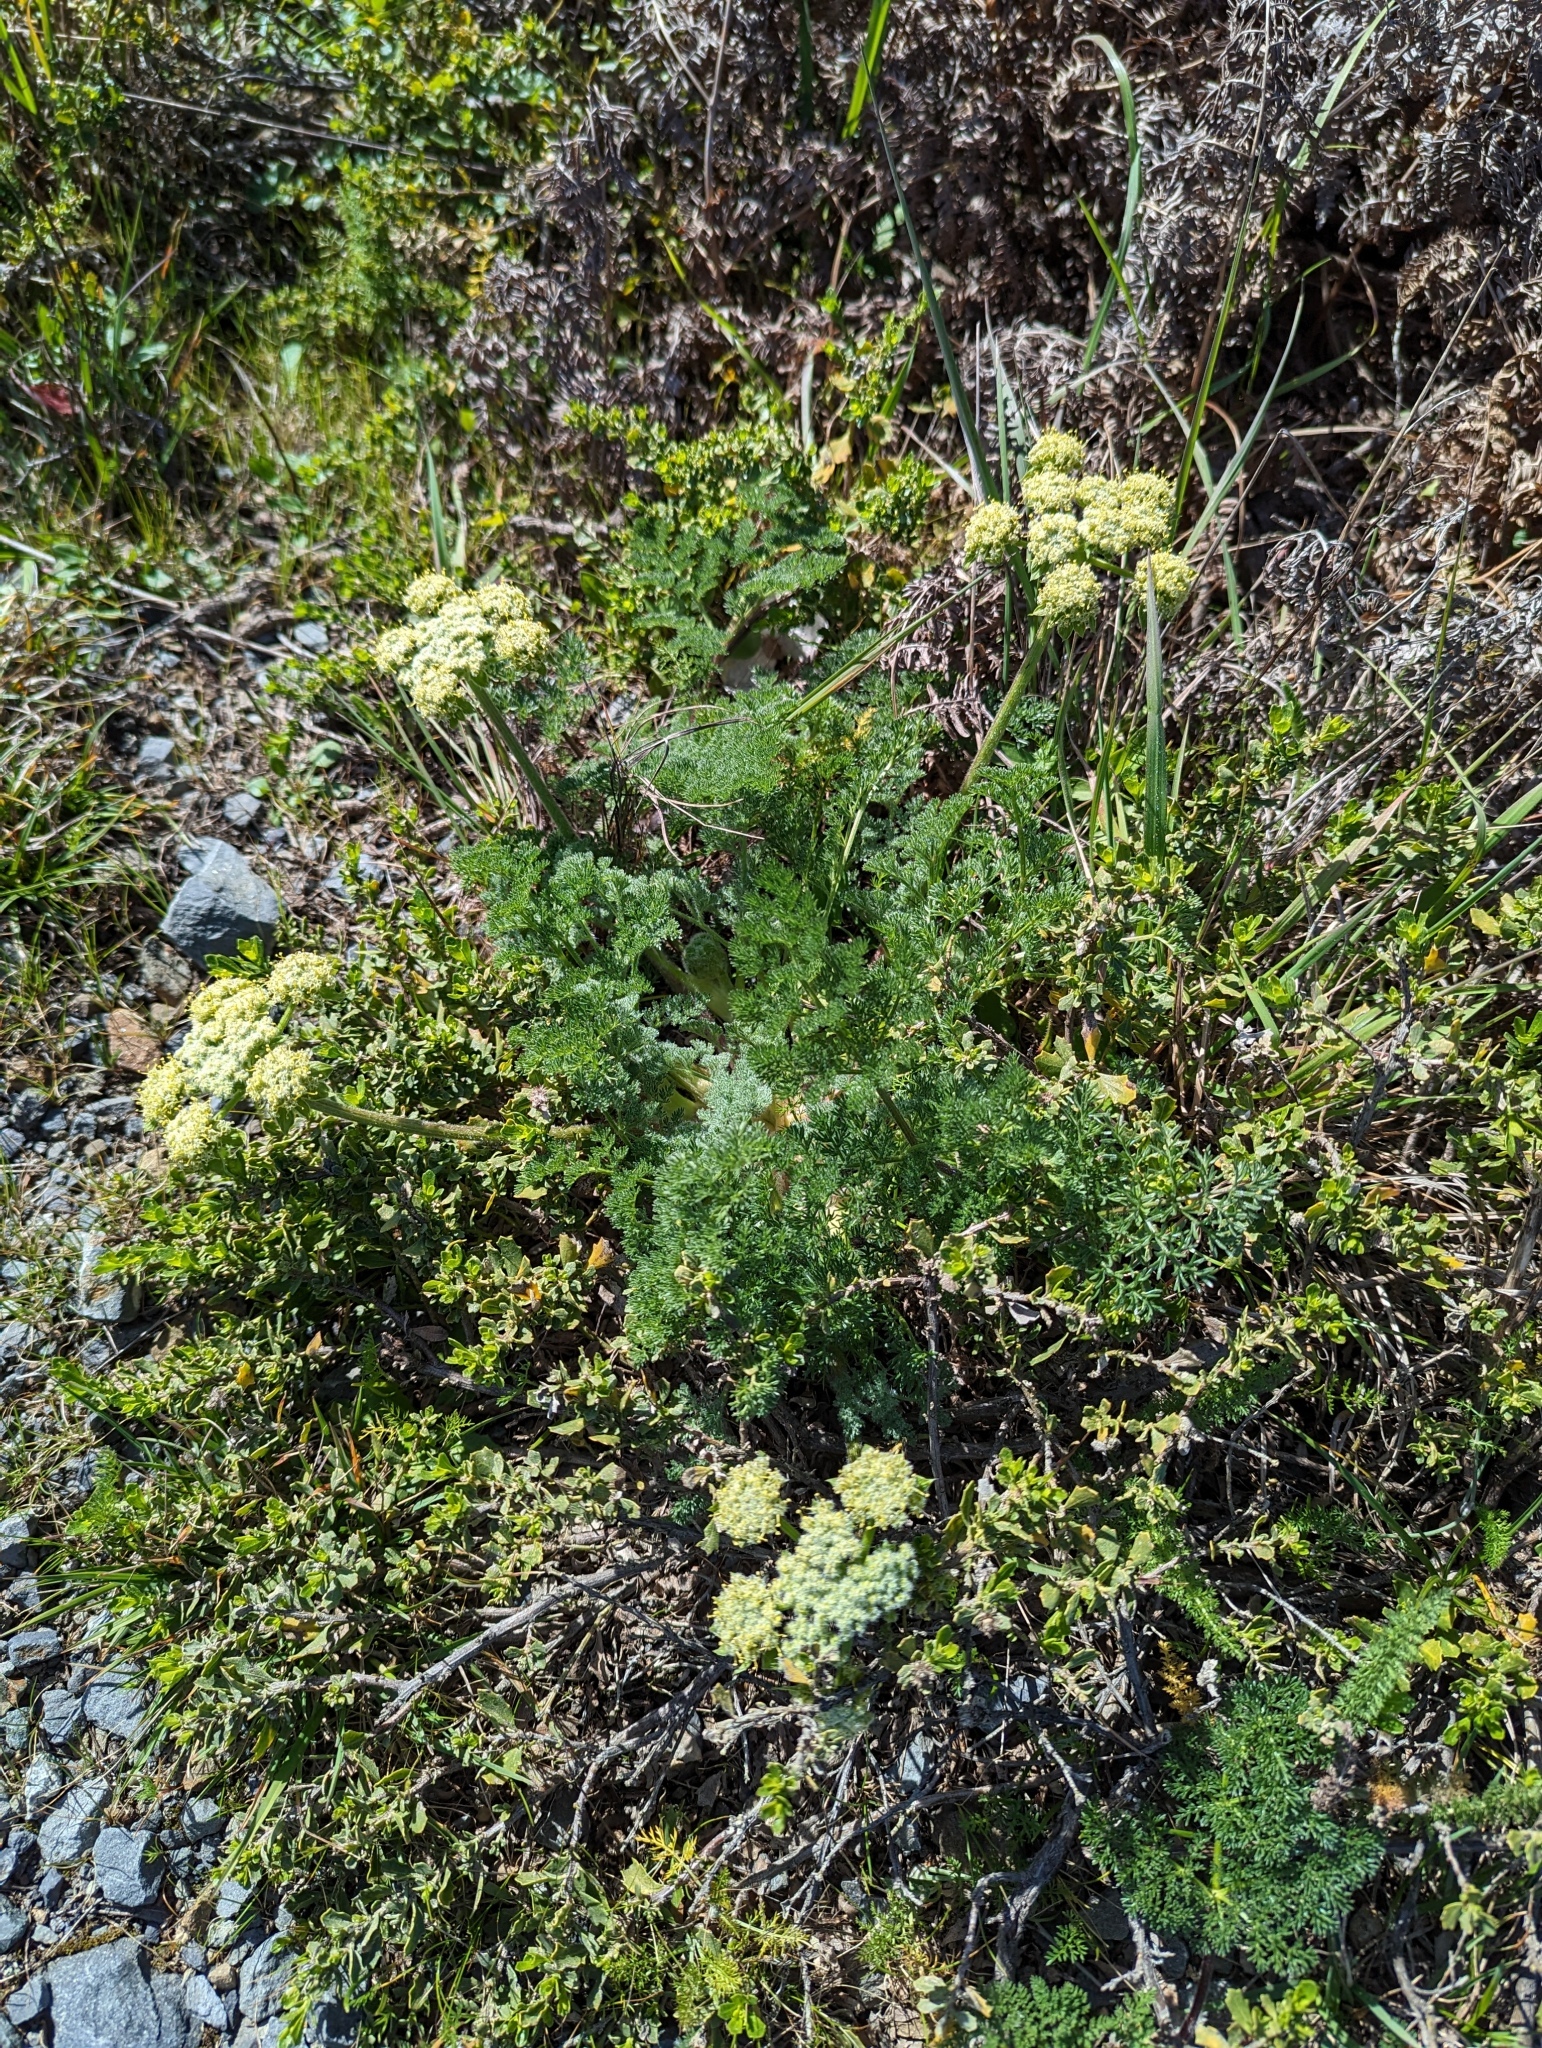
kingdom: Plantae
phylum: Tracheophyta
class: Magnoliopsida
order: Apiales
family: Apiaceae
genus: Lomatium
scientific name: Lomatium dasycarpum
